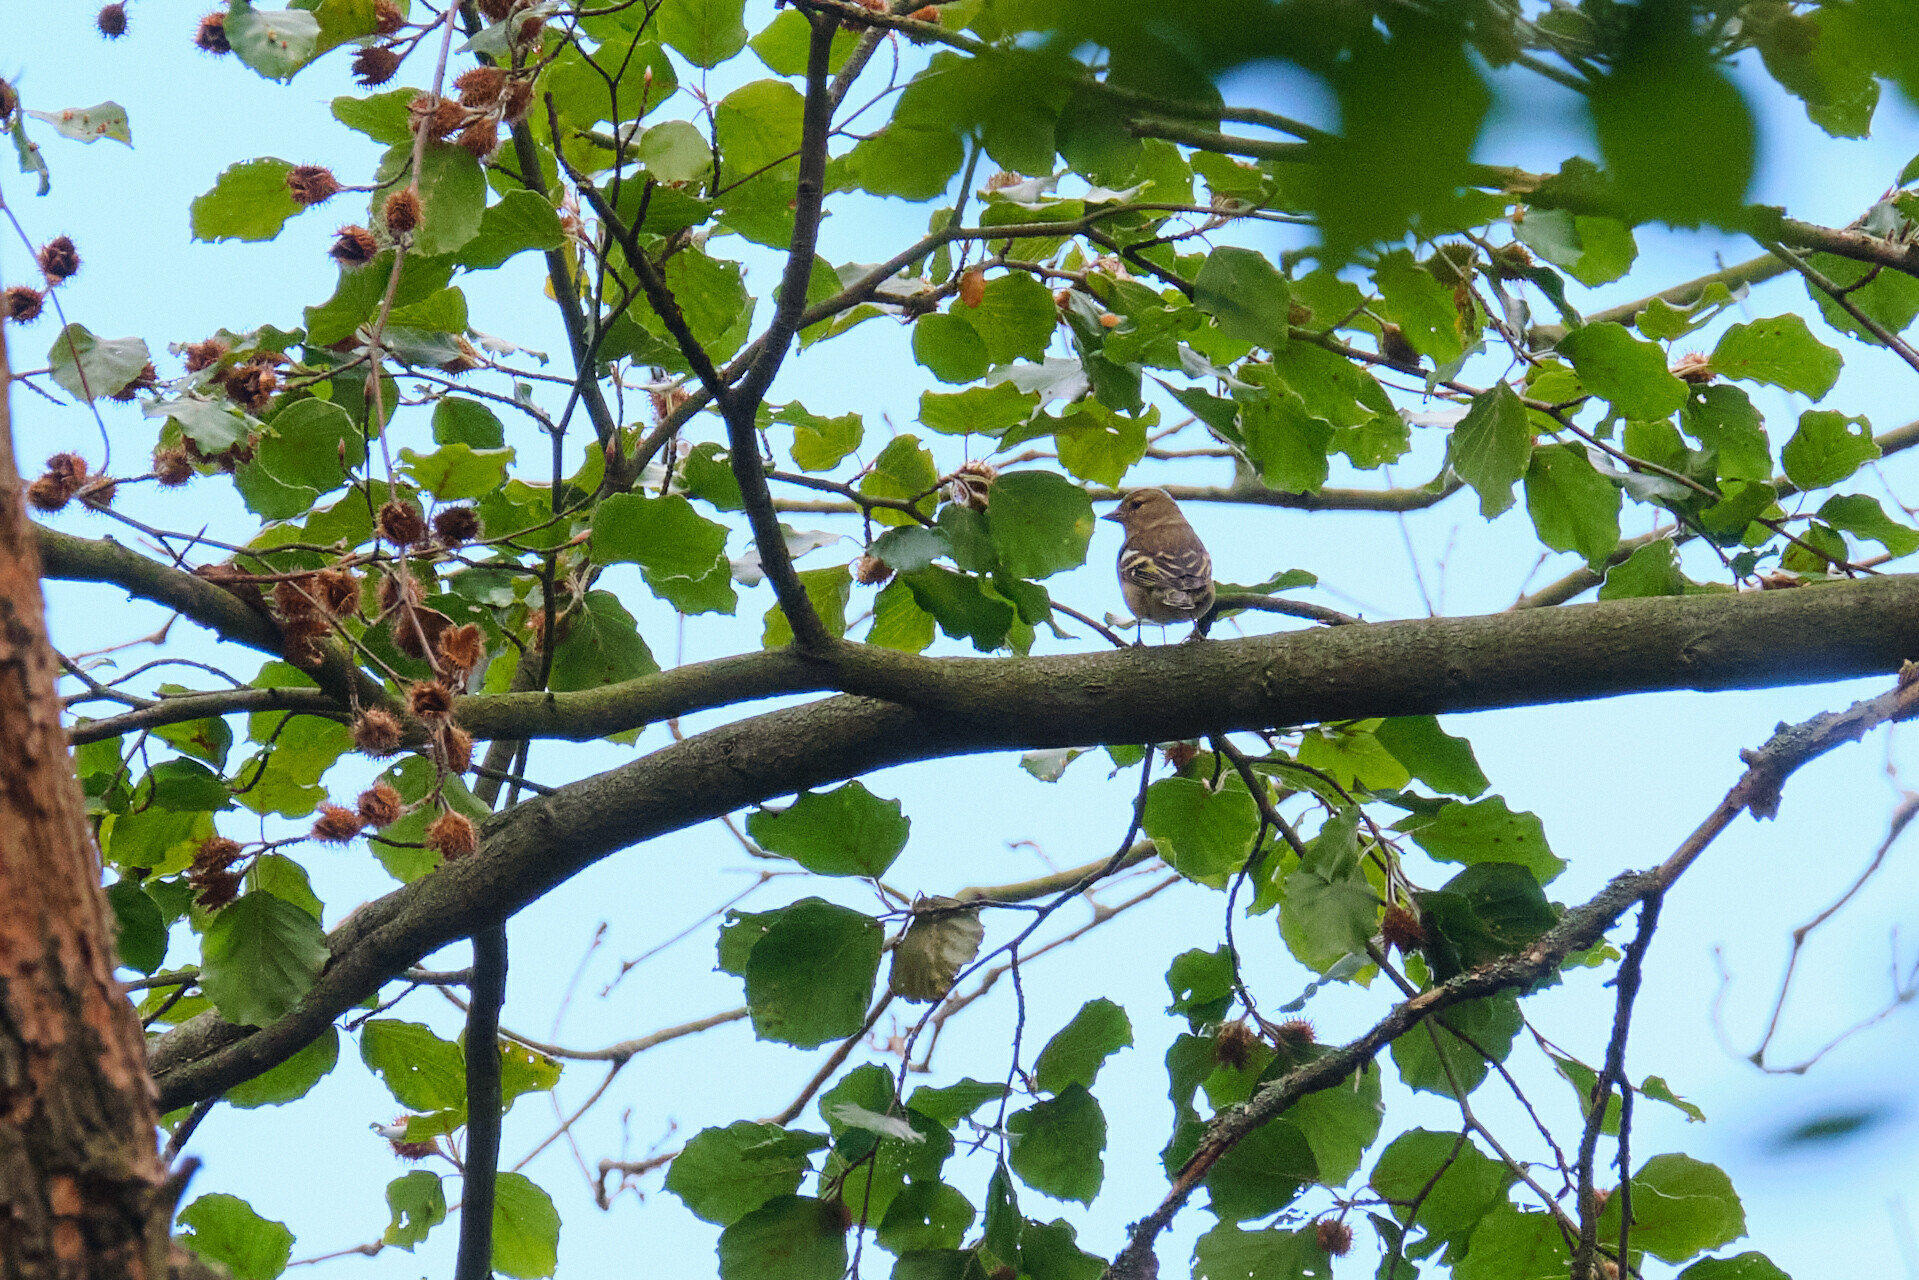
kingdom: Animalia
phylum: Chordata
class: Aves
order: Passeriformes
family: Fringillidae
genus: Fringilla
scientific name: Fringilla coelebs
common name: Common chaffinch
